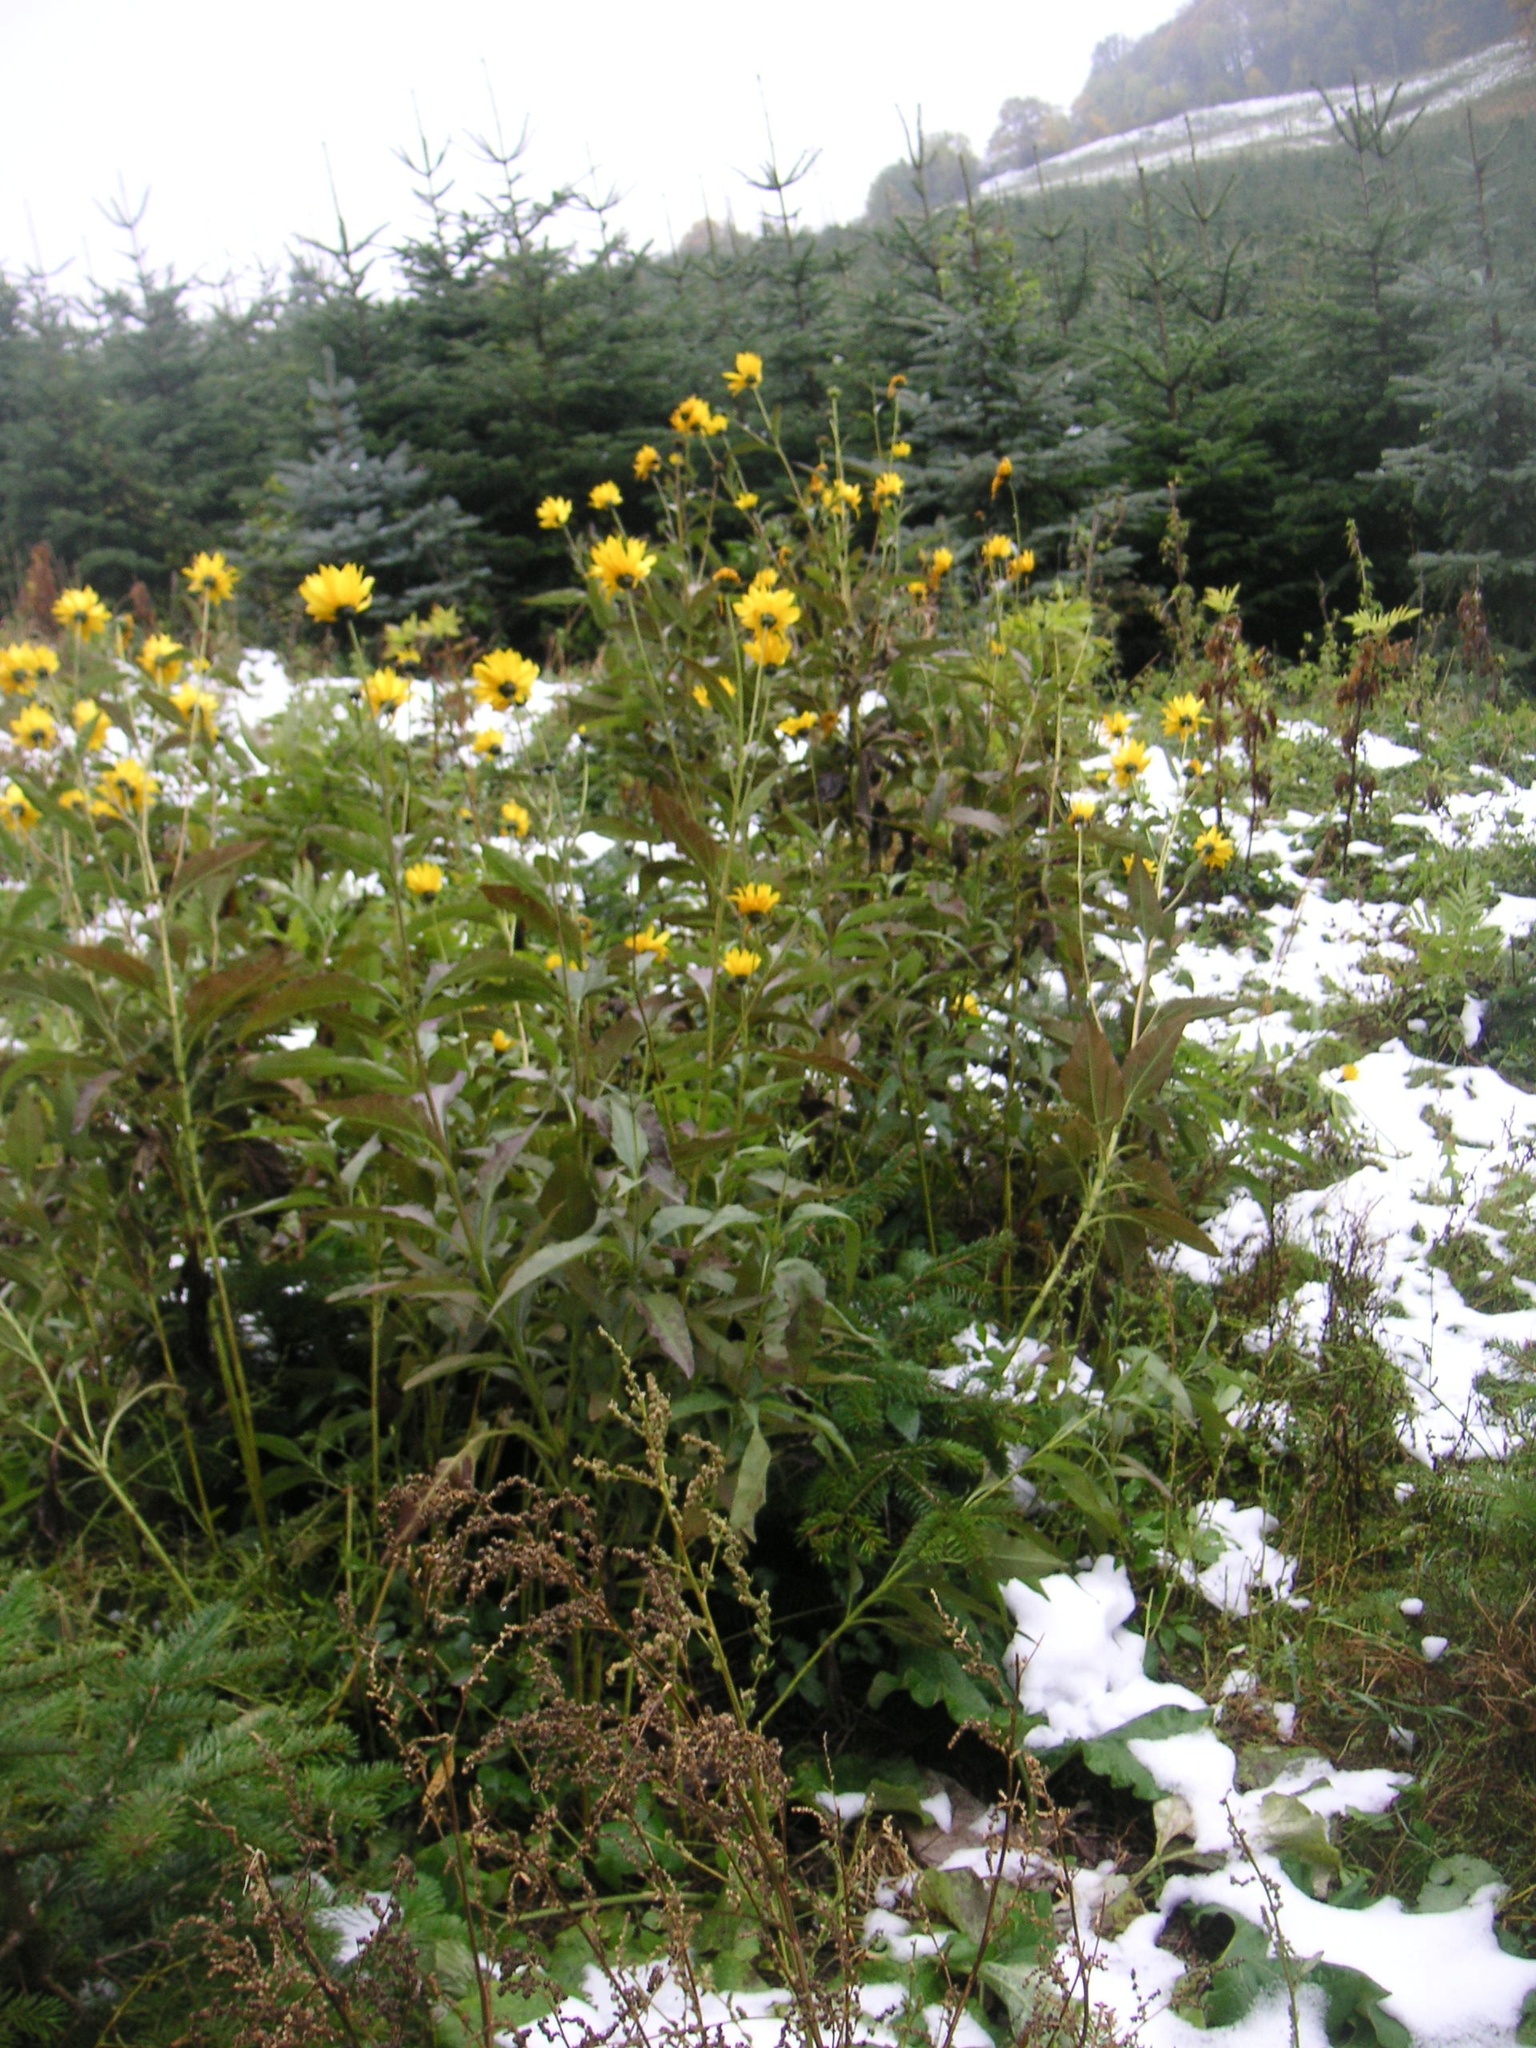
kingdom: Plantae
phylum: Tracheophyta
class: Magnoliopsida
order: Asterales
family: Asteraceae
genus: Helianthus
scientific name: Helianthus tuberosus
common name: Jerusalem artichoke
